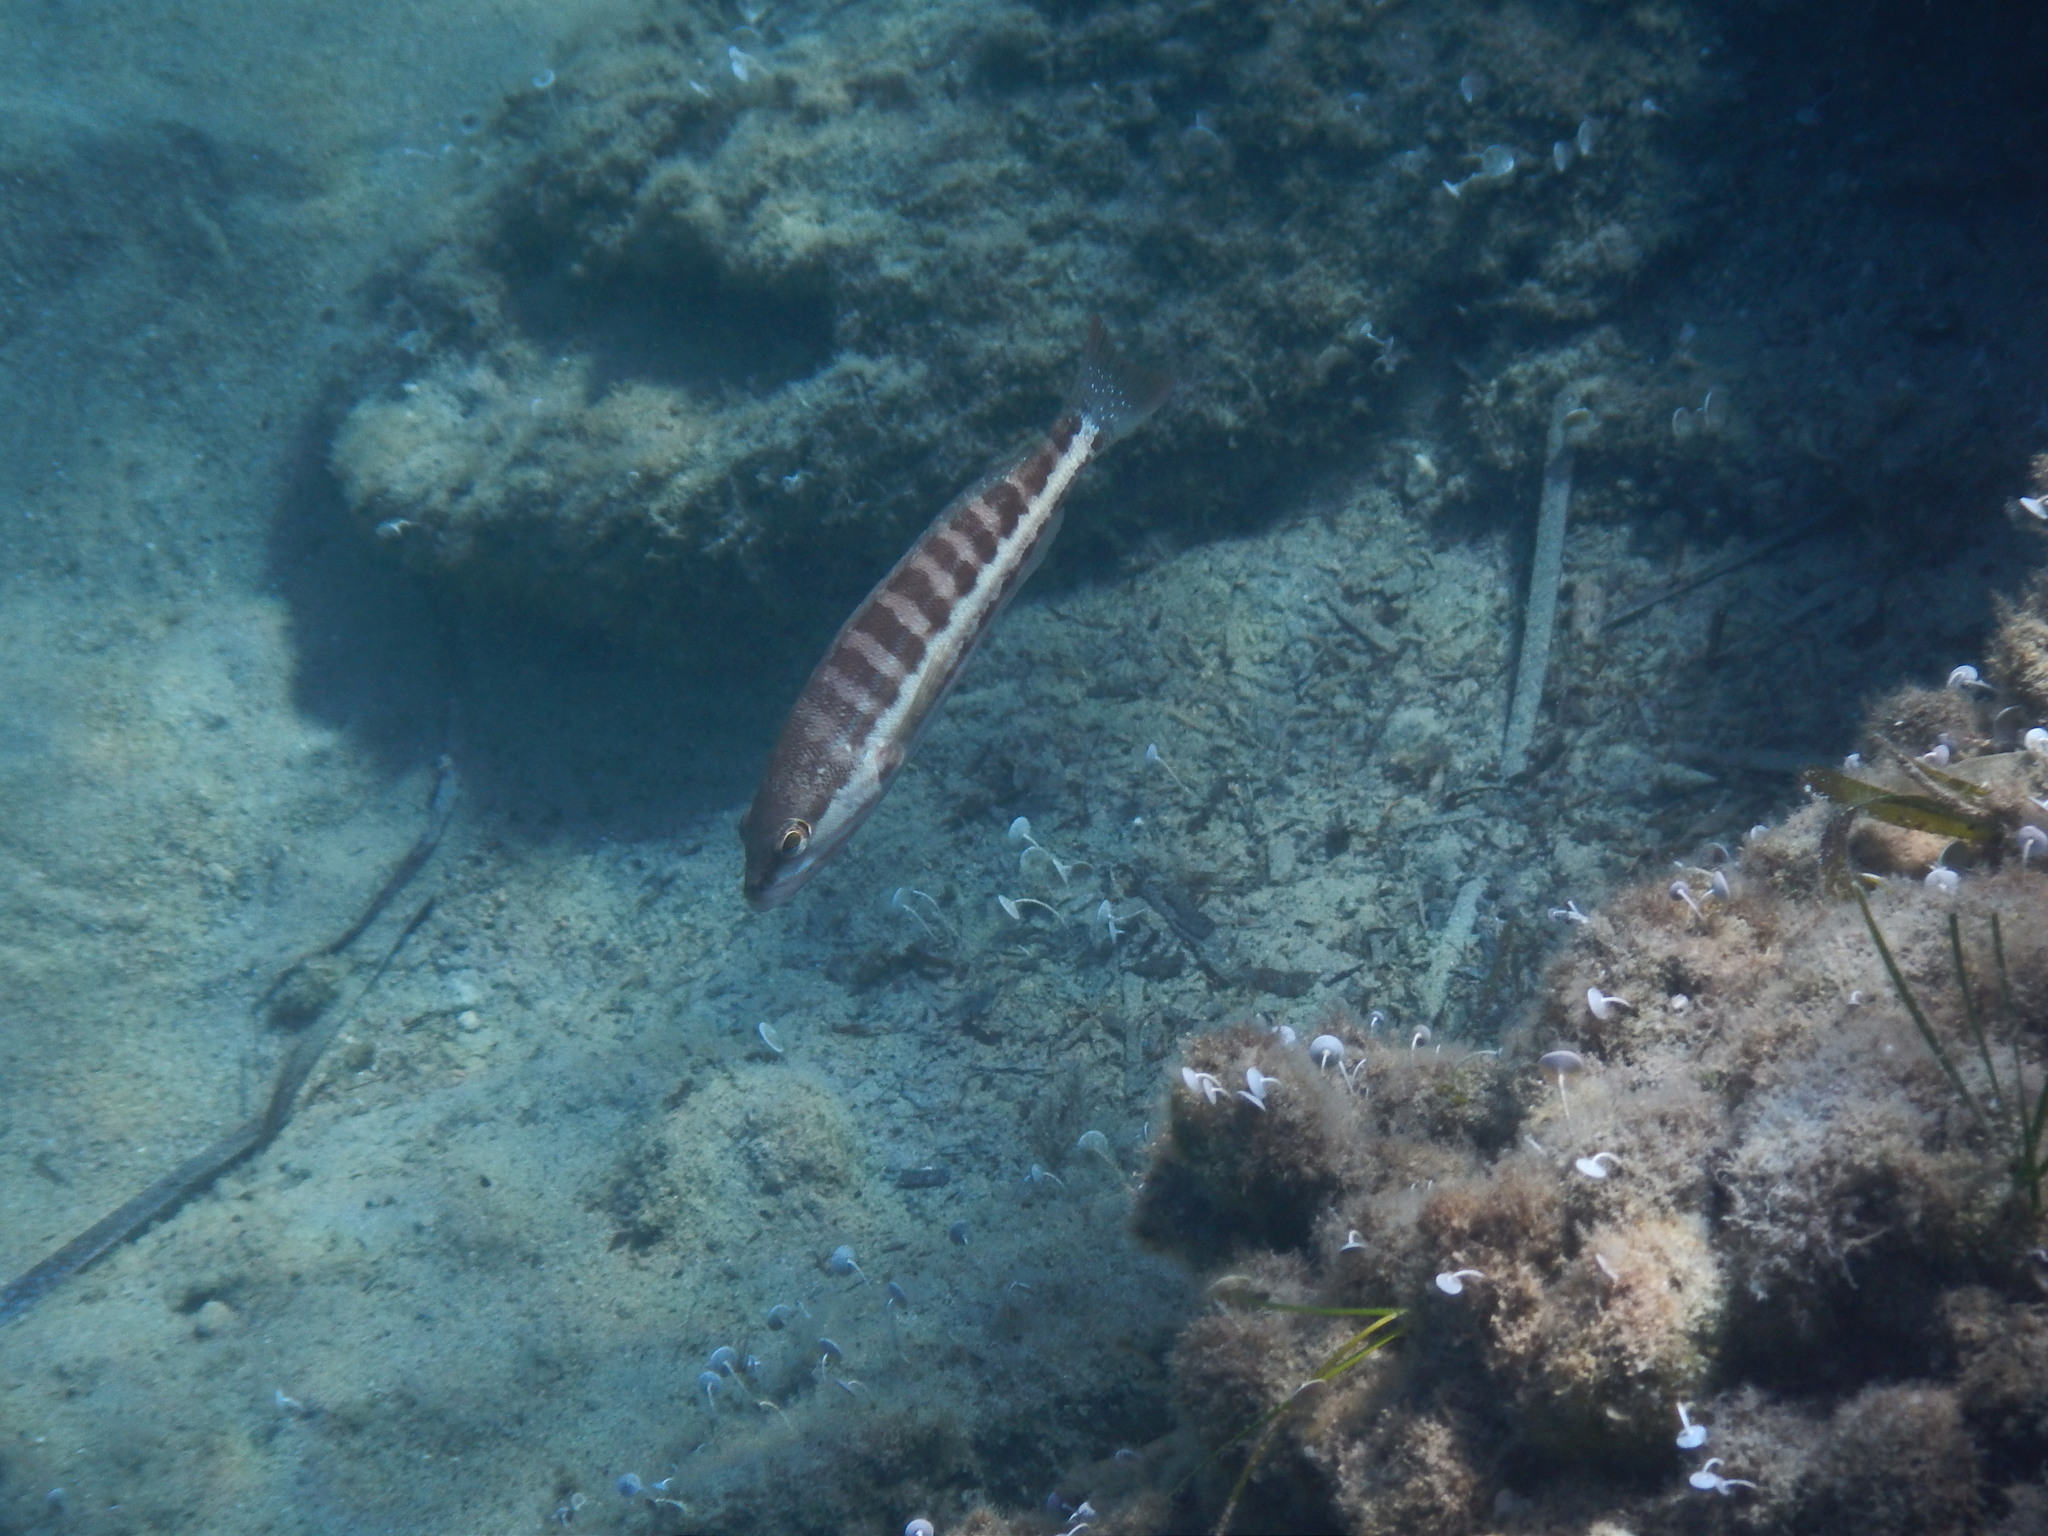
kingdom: Animalia
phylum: Chordata
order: Perciformes
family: Serranidae
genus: Serranus
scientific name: Serranus cabrilla
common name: Comber
